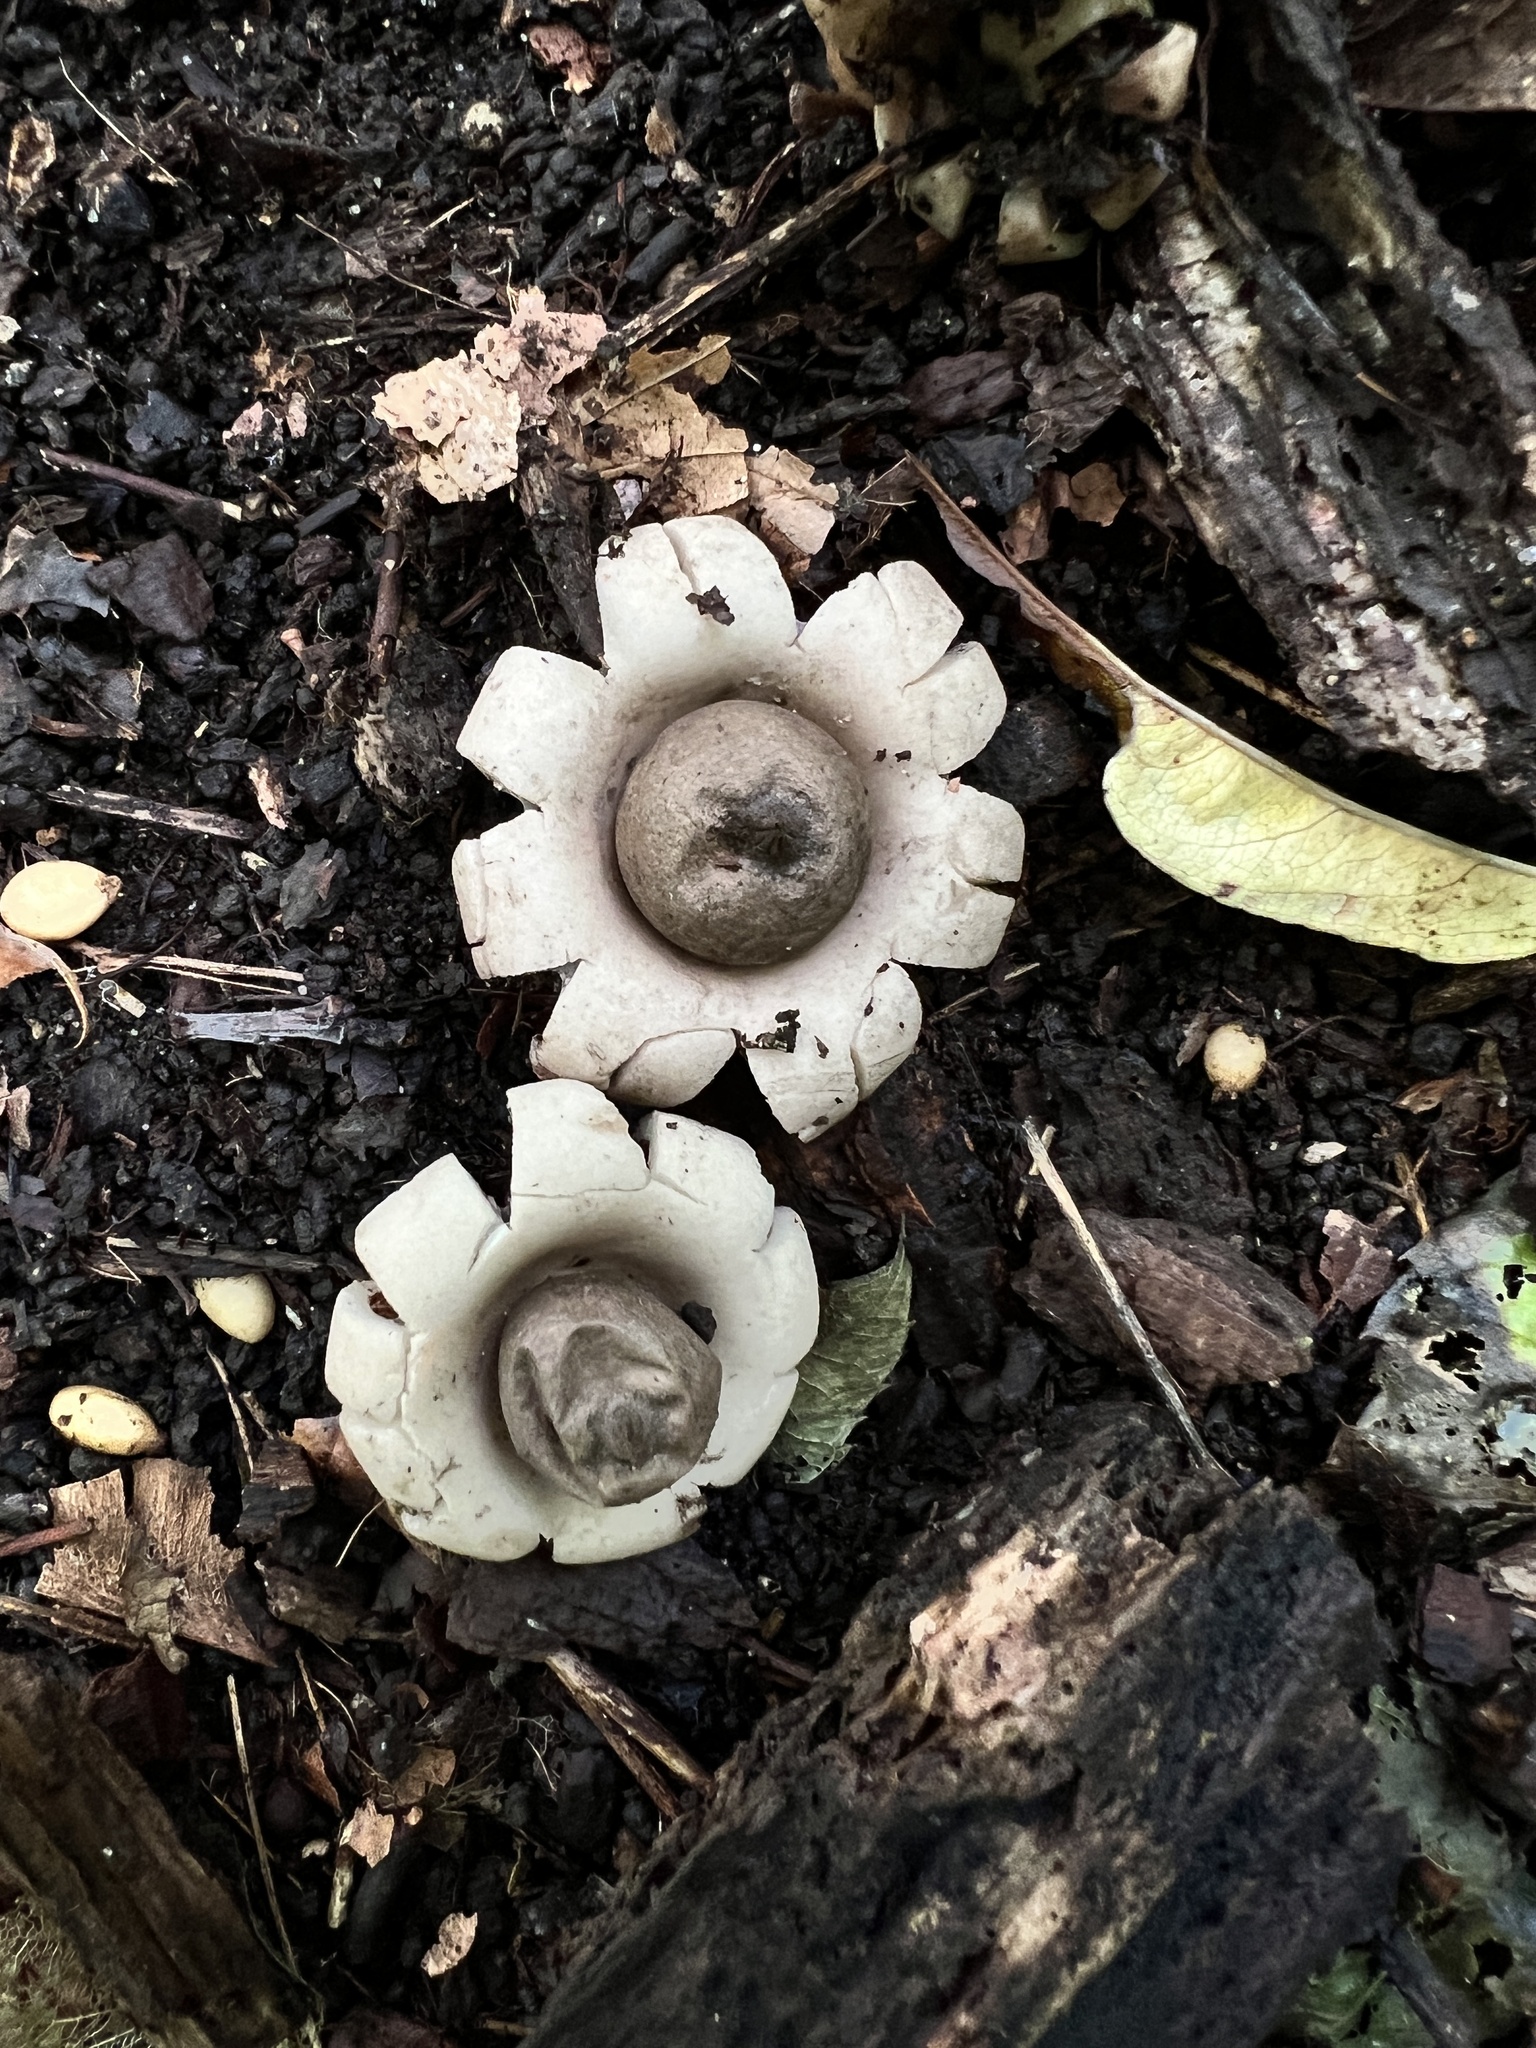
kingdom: Fungi
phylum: Basidiomycota
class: Agaricomycetes
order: Geastrales
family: Geastraceae
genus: Geastrum
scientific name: Geastrum saccatum
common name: Rounded earthstar
